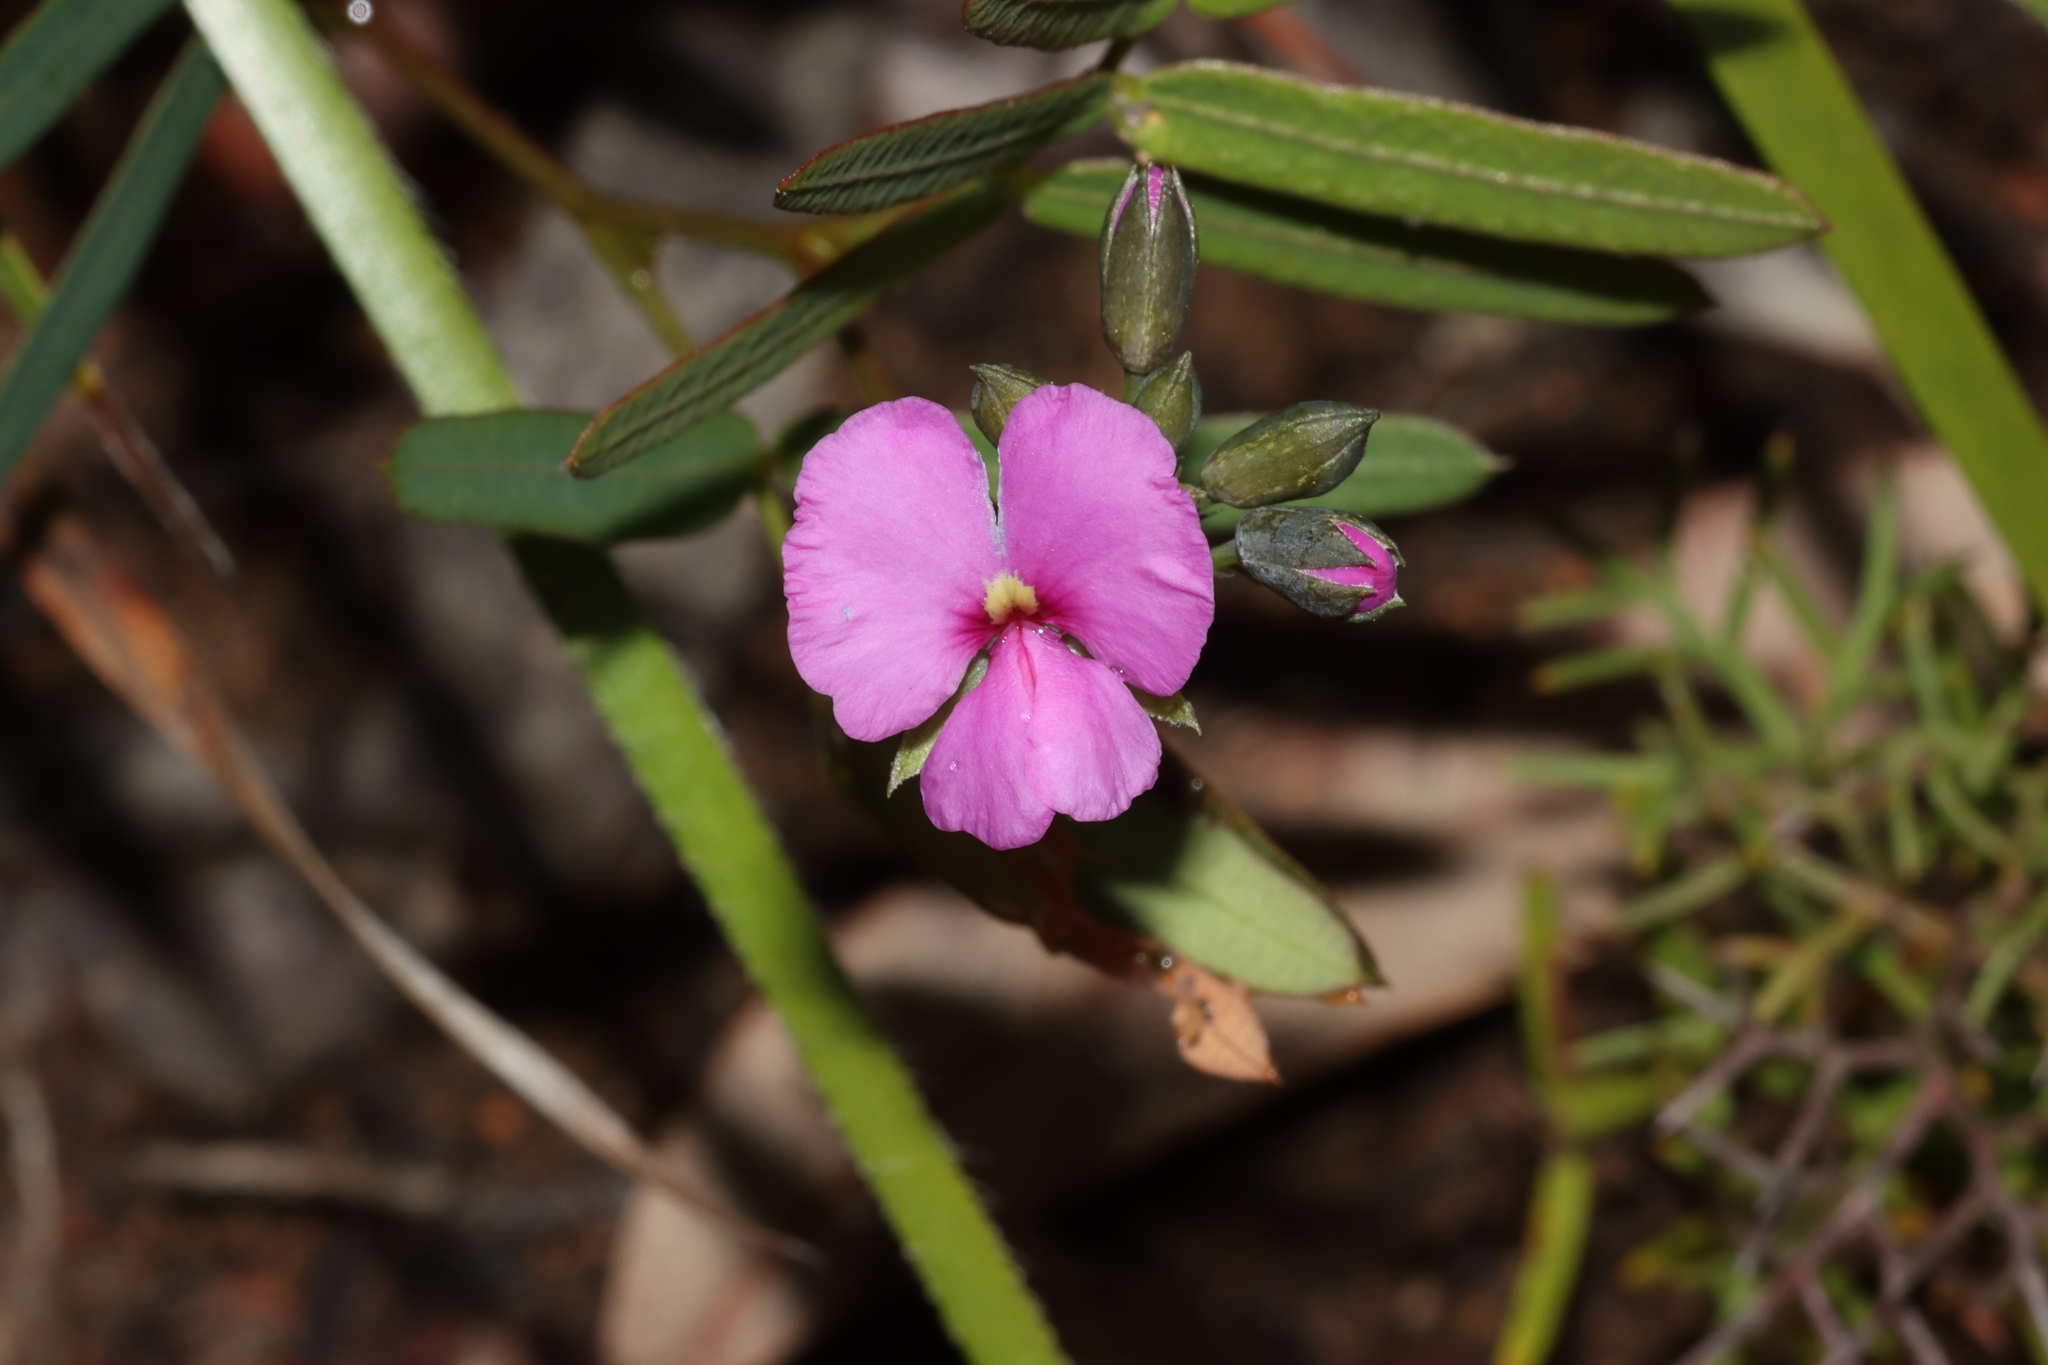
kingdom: Plantae
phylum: Tracheophyta
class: Magnoliopsida
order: Fabales
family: Fabaceae
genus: Gompholobium
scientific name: Gompholobium knightianum
